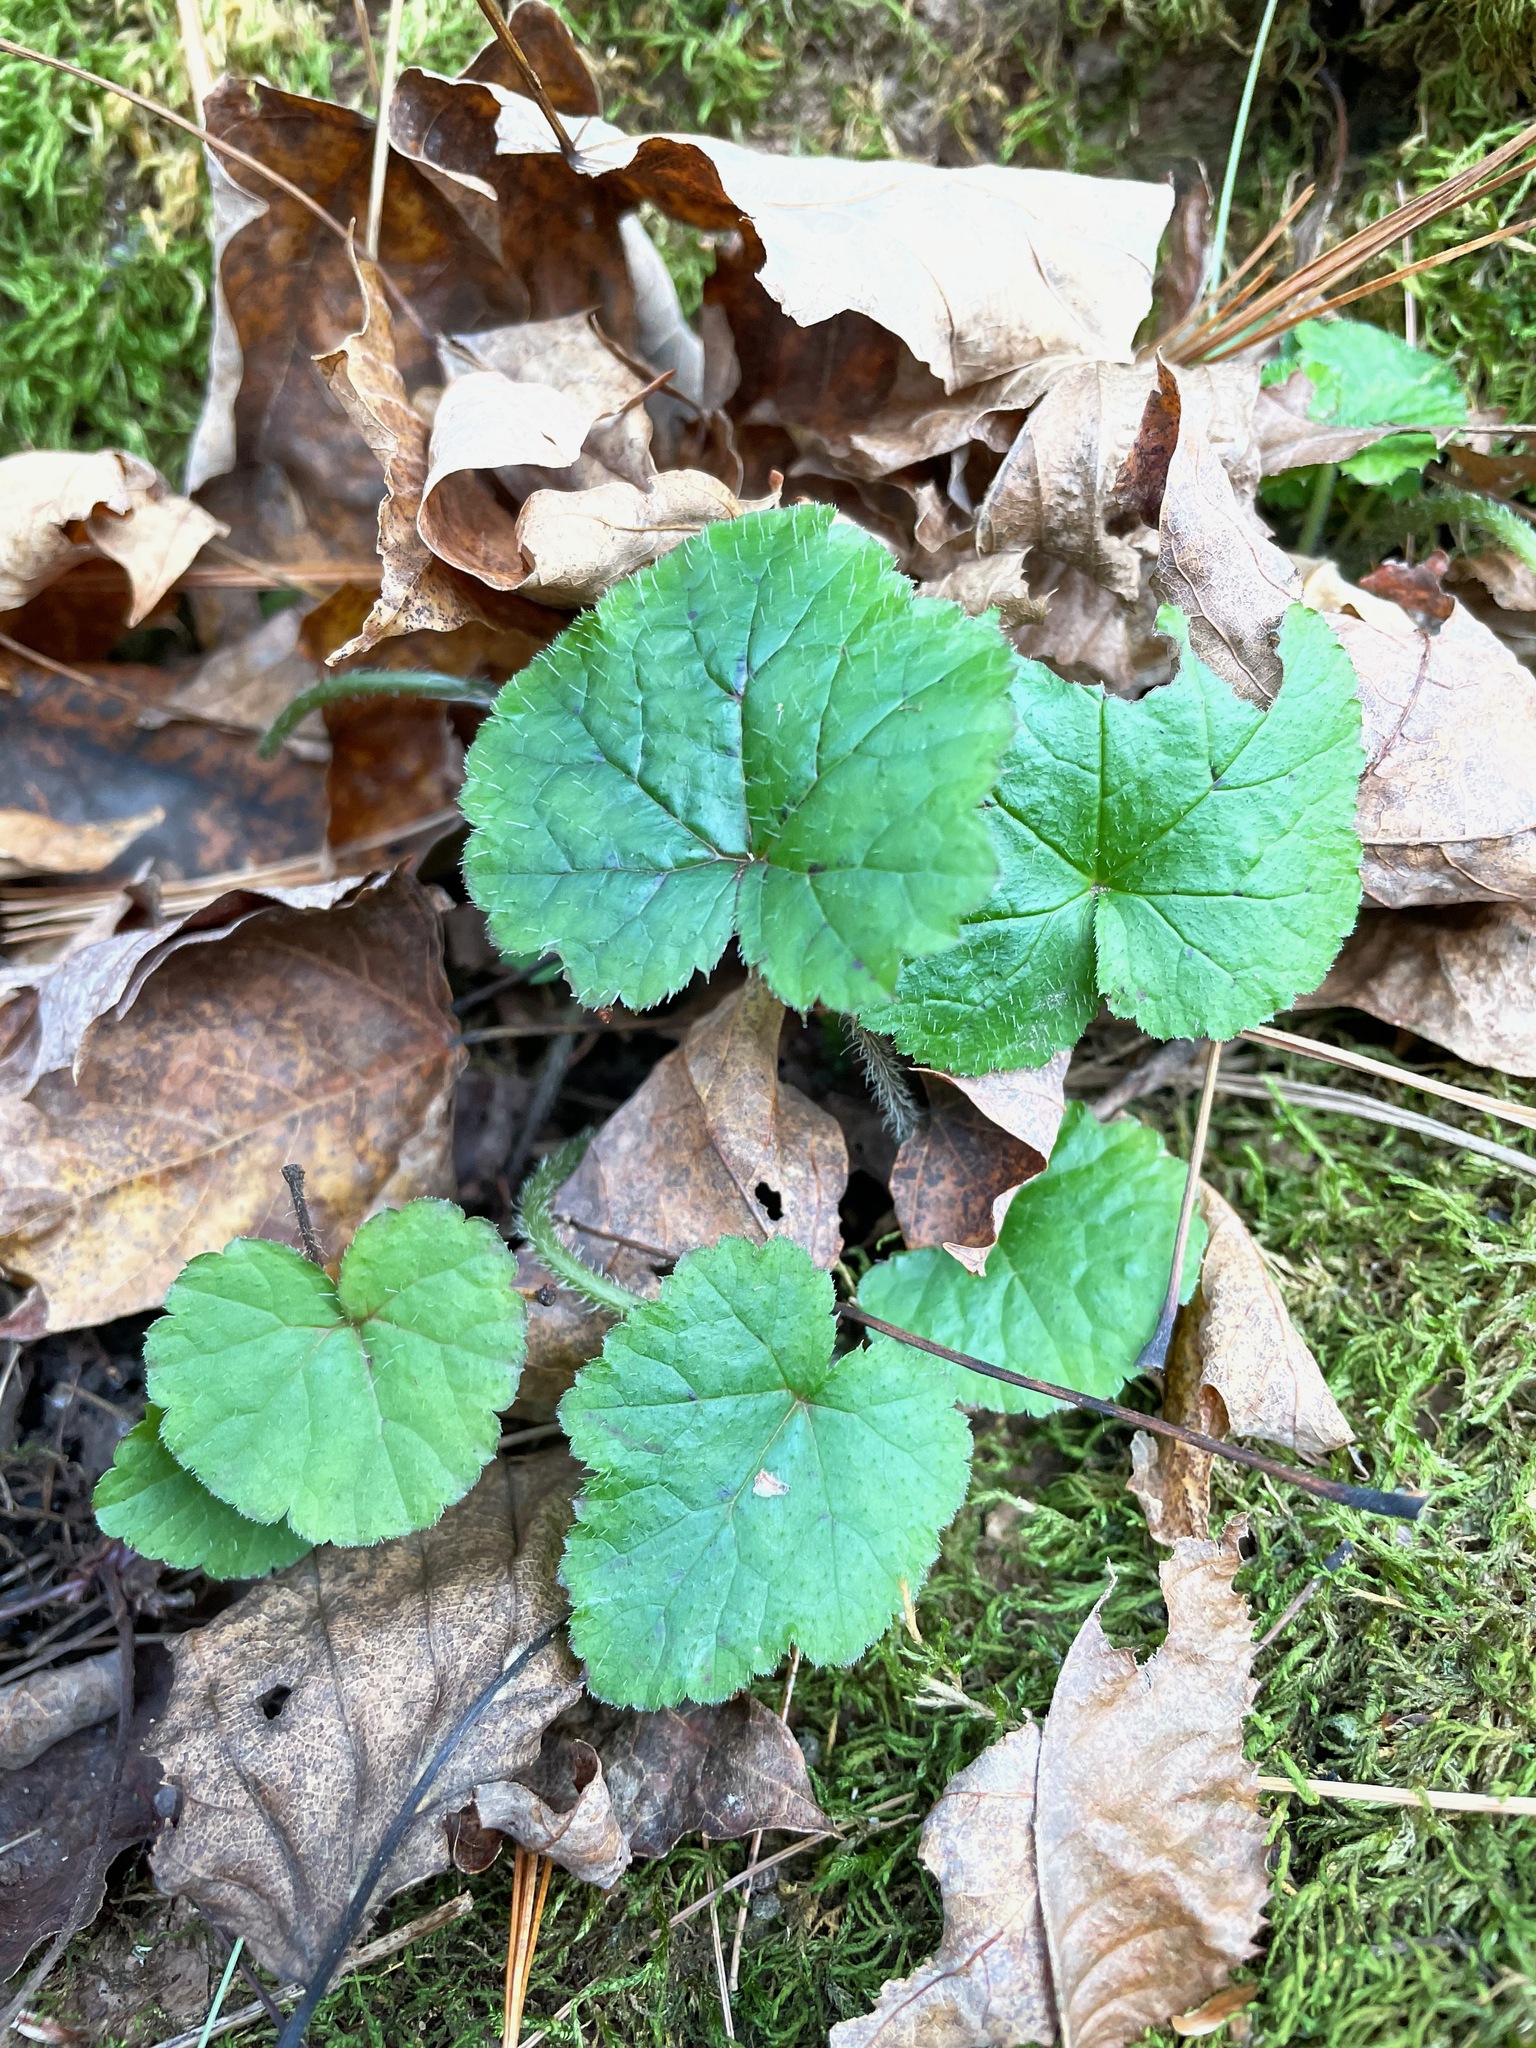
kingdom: Plantae
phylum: Tracheophyta
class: Magnoliopsida
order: Saxifragales
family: Saxifragaceae
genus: Tiarella
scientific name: Tiarella stolonifera
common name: Stoloniferous foamflower
